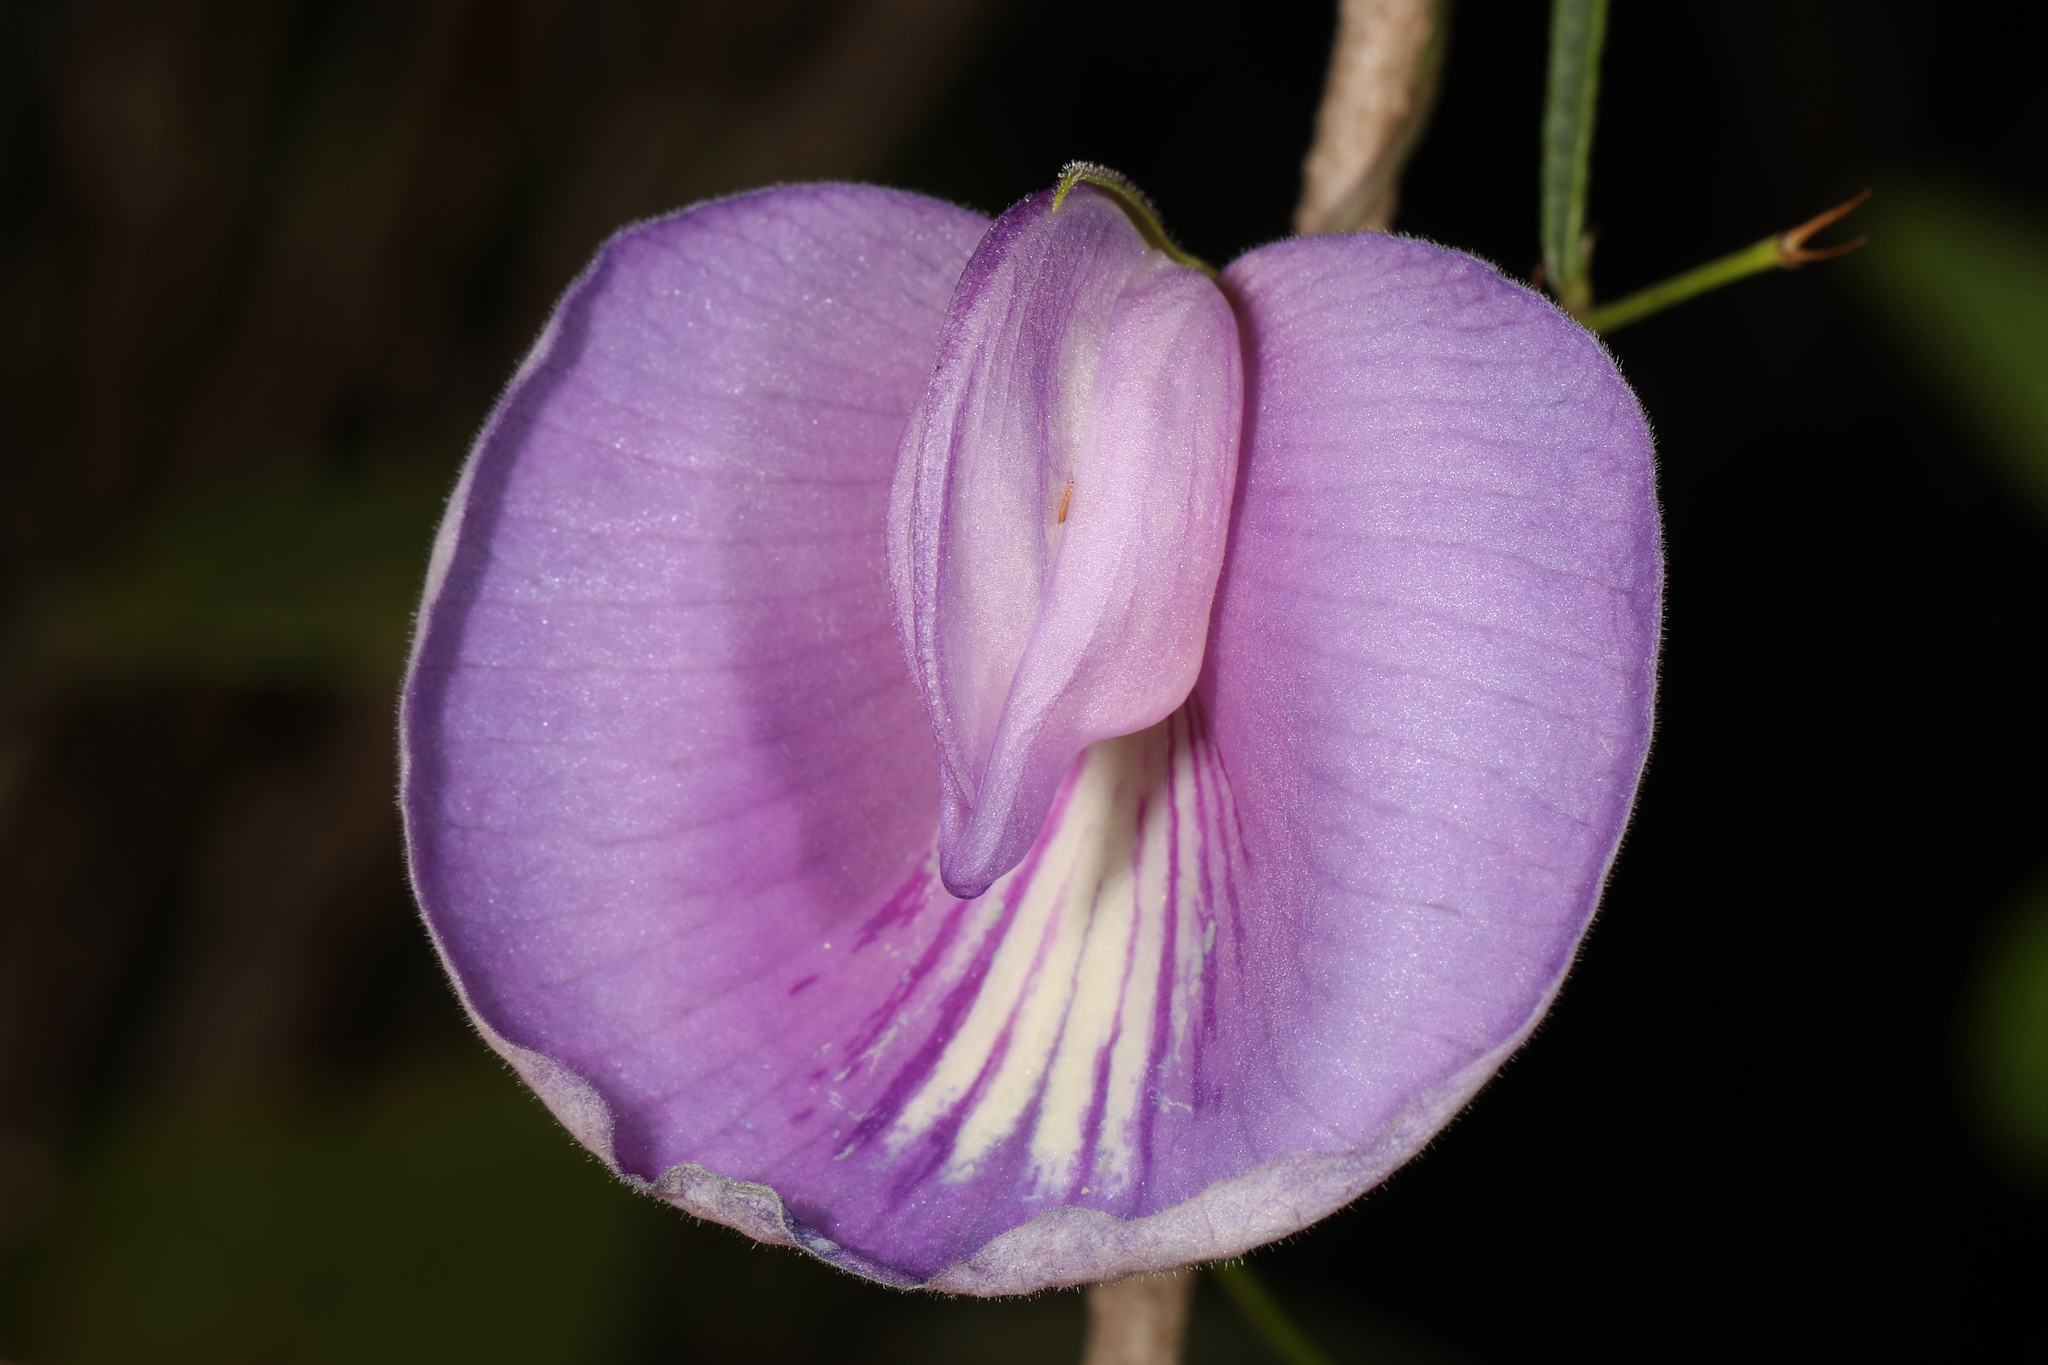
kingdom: Plantae
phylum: Tracheophyta
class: Magnoliopsida
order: Fabales
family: Fabaceae
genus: Centrosema
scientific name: Centrosema virginianum
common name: Butterfly-pea
